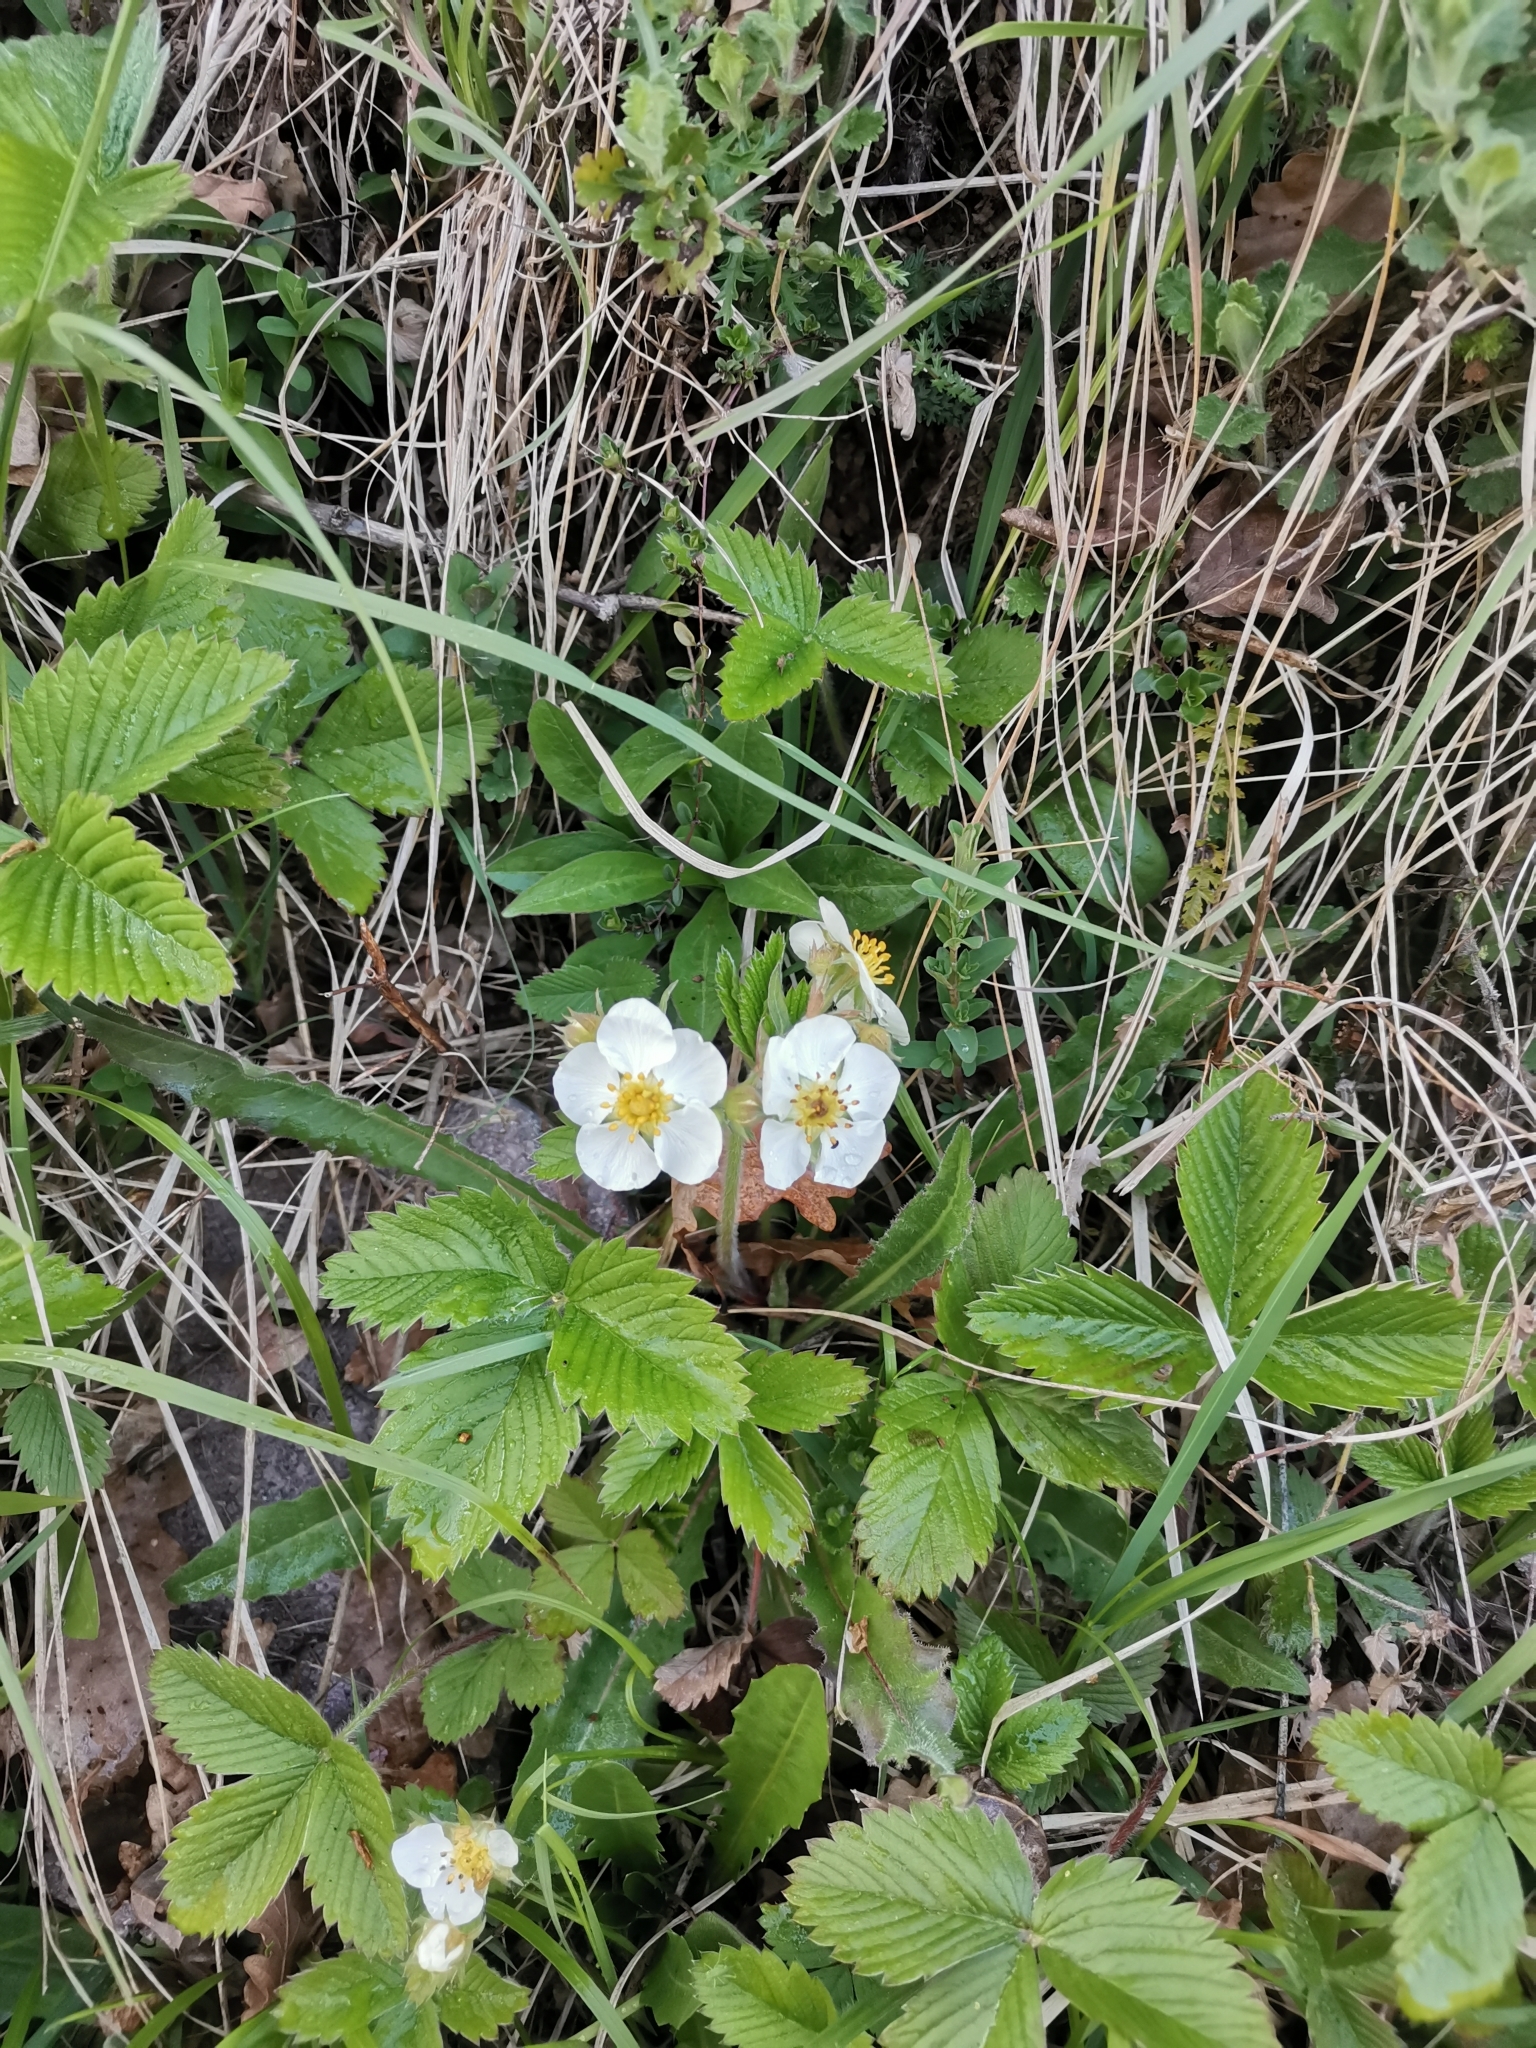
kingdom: Plantae
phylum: Tracheophyta
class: Magnoliopsida
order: Rosales
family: Rosaceae
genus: Fragaria
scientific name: Fragaria moschata
